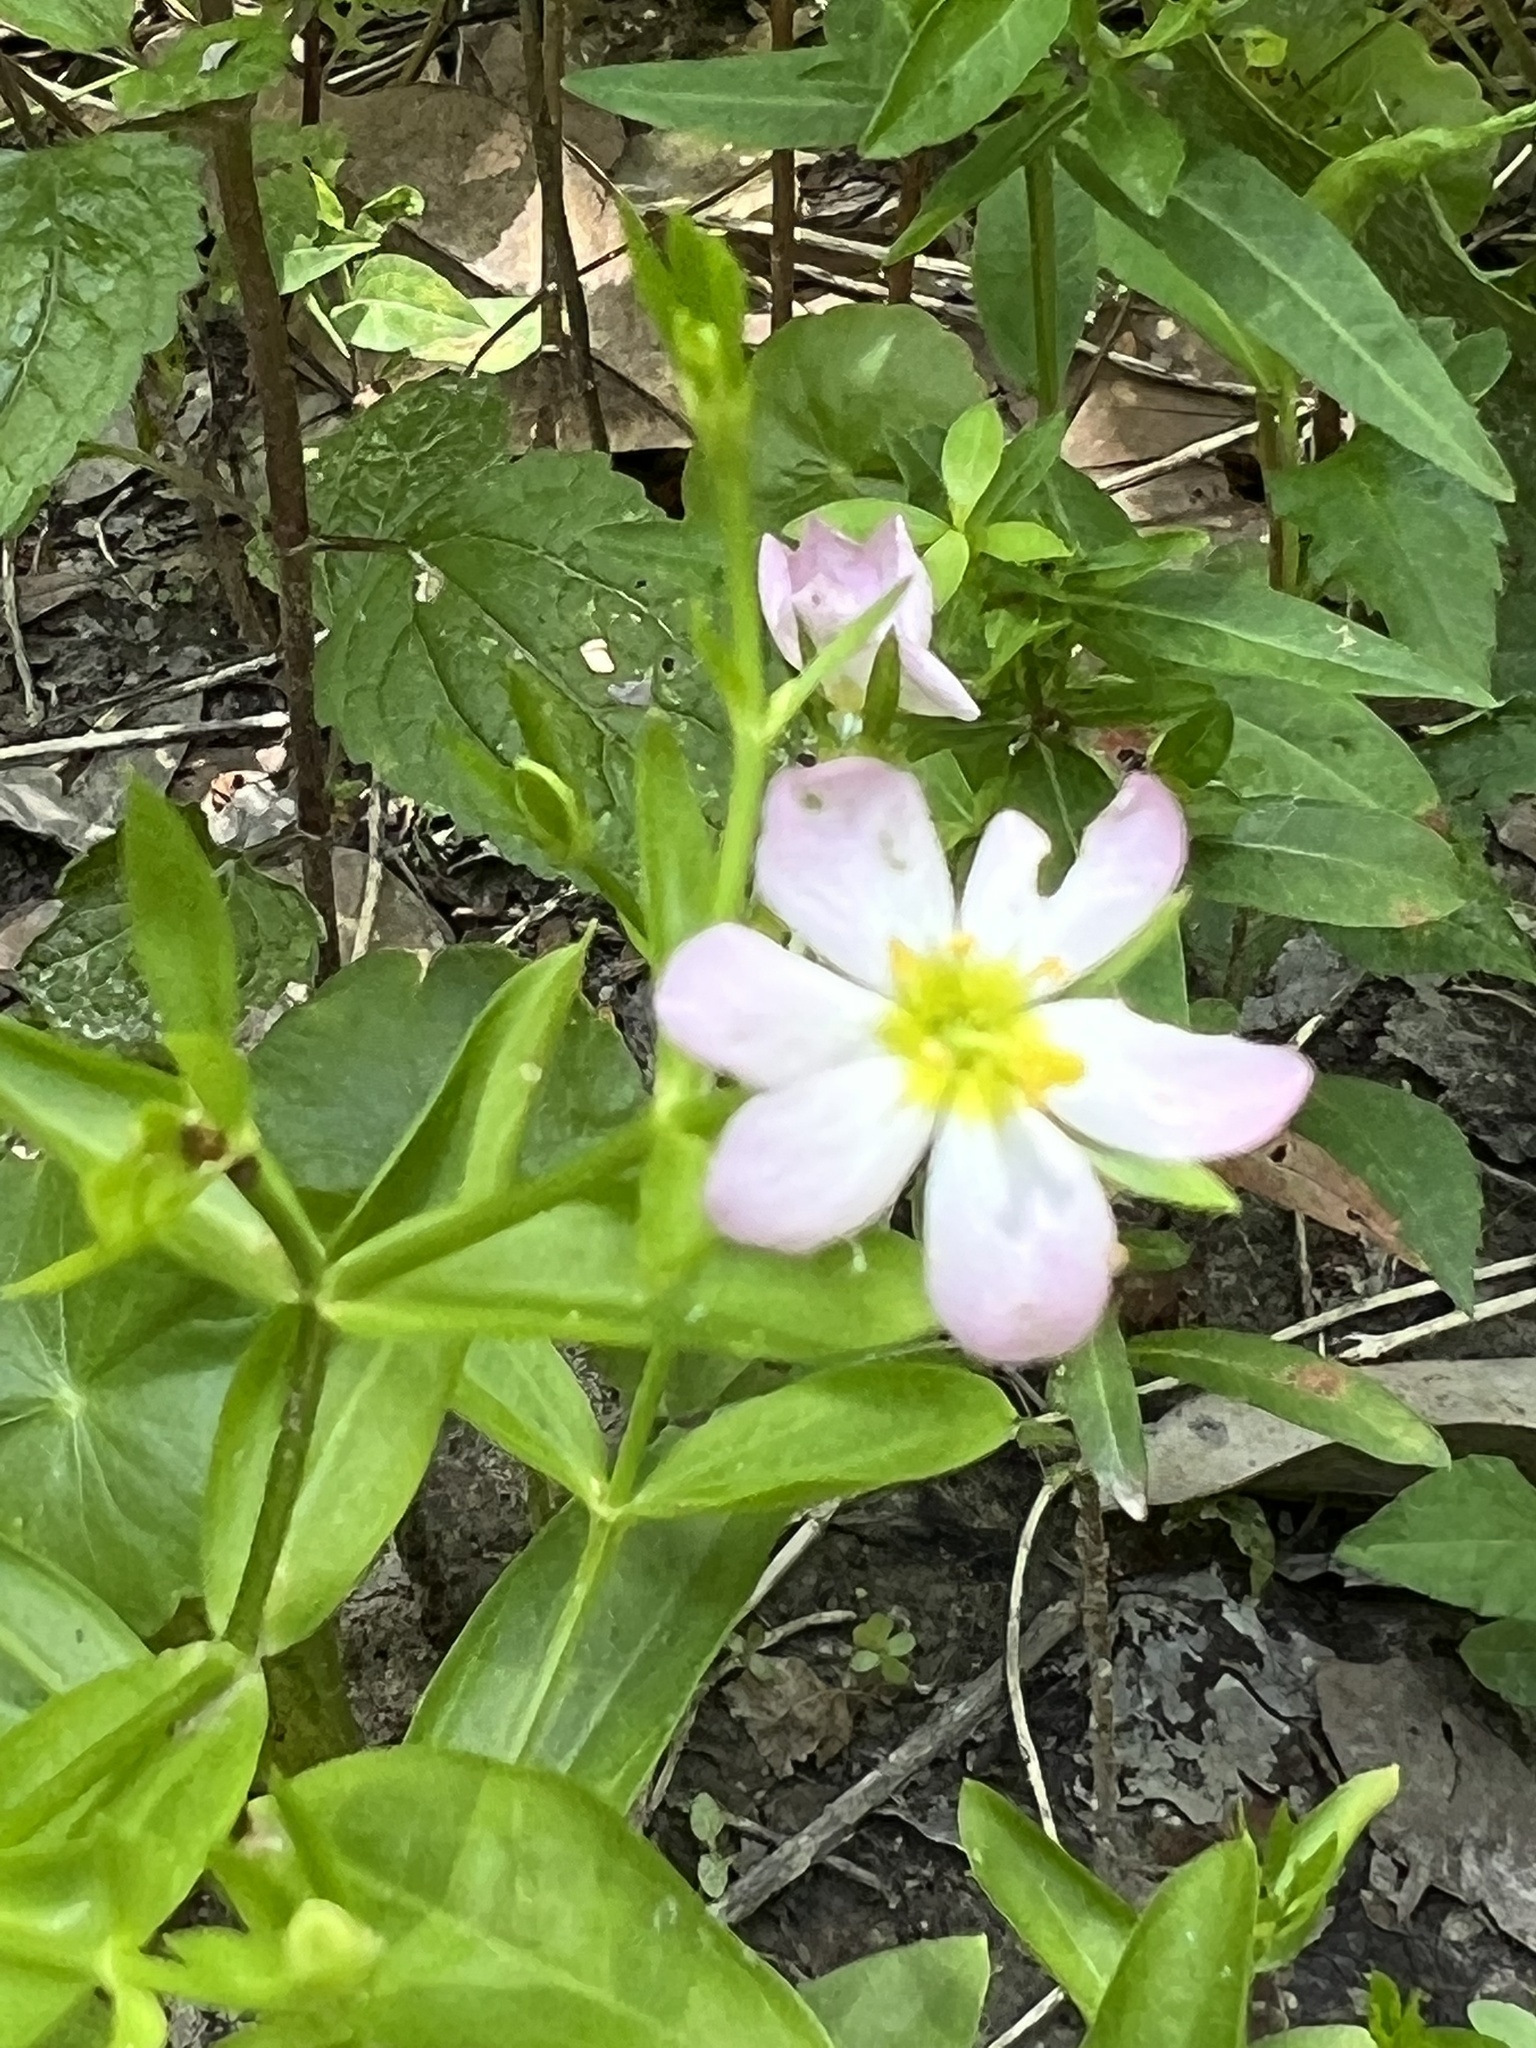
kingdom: Plantae
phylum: Tracheophyta
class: Magnoliopsida
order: Gentianales
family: Gentianaceae
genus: Sabatia
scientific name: Sabatia calycina
